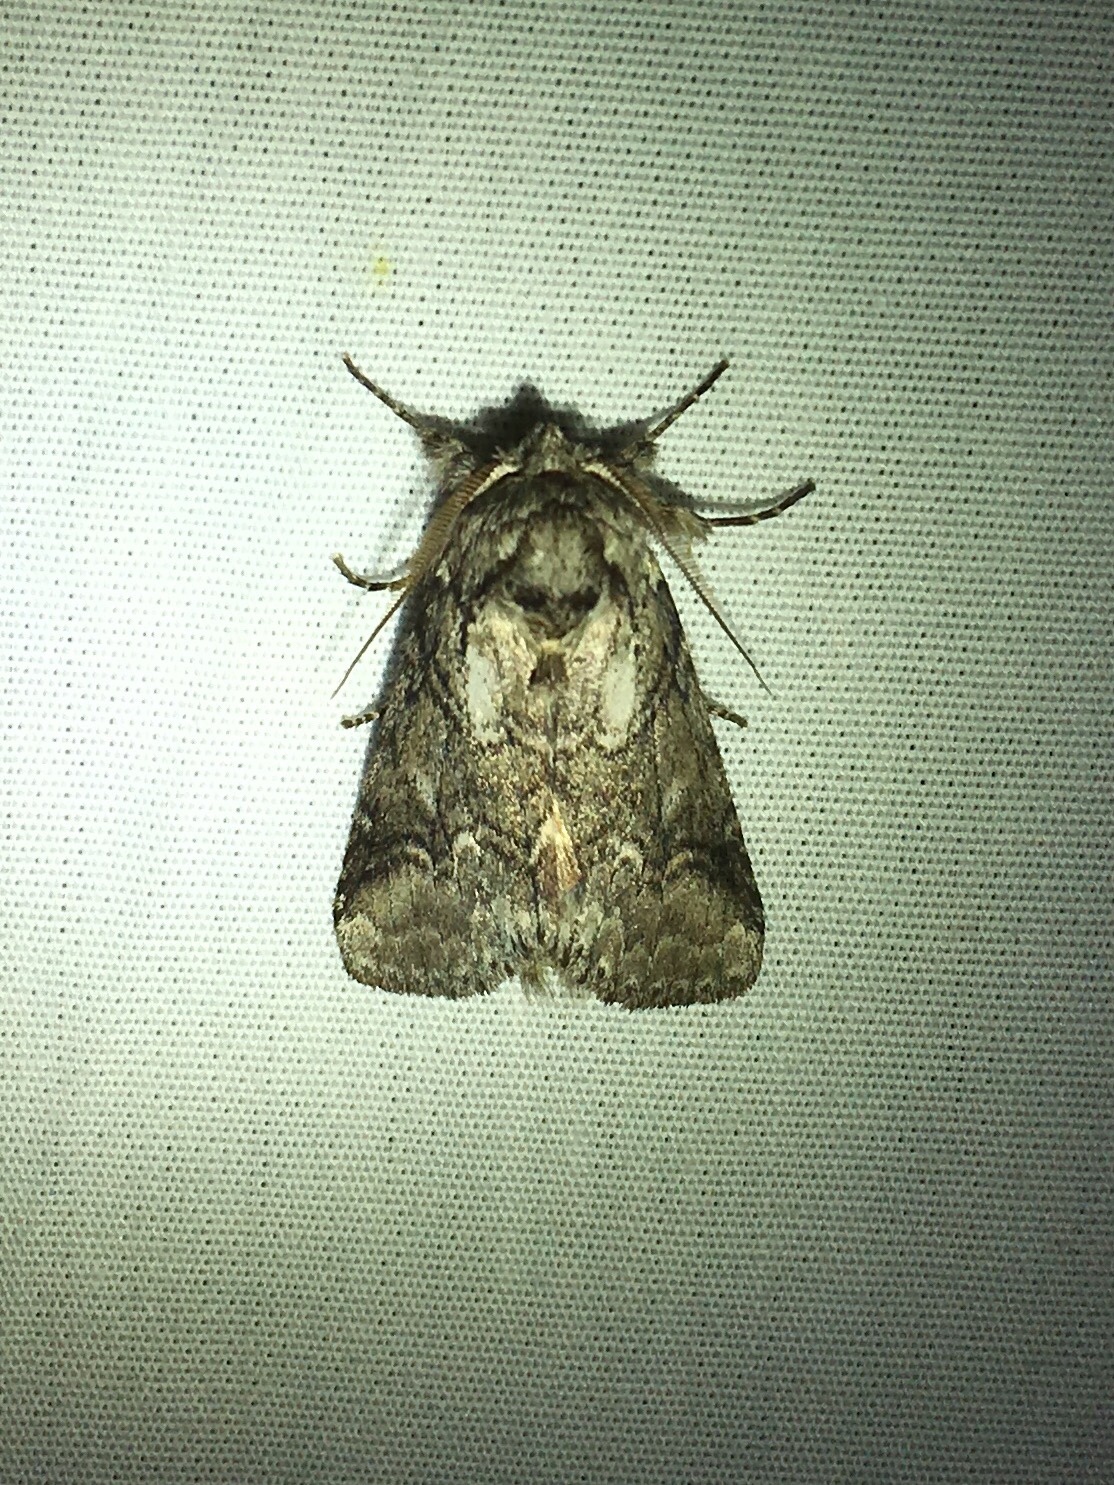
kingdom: Animalia
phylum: Arthropoda
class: Insecta
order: Lepidoptera
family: Notodontidae
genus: Lochmaeus
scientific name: Lochmaeus bilineata
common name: Double-lined prominent
